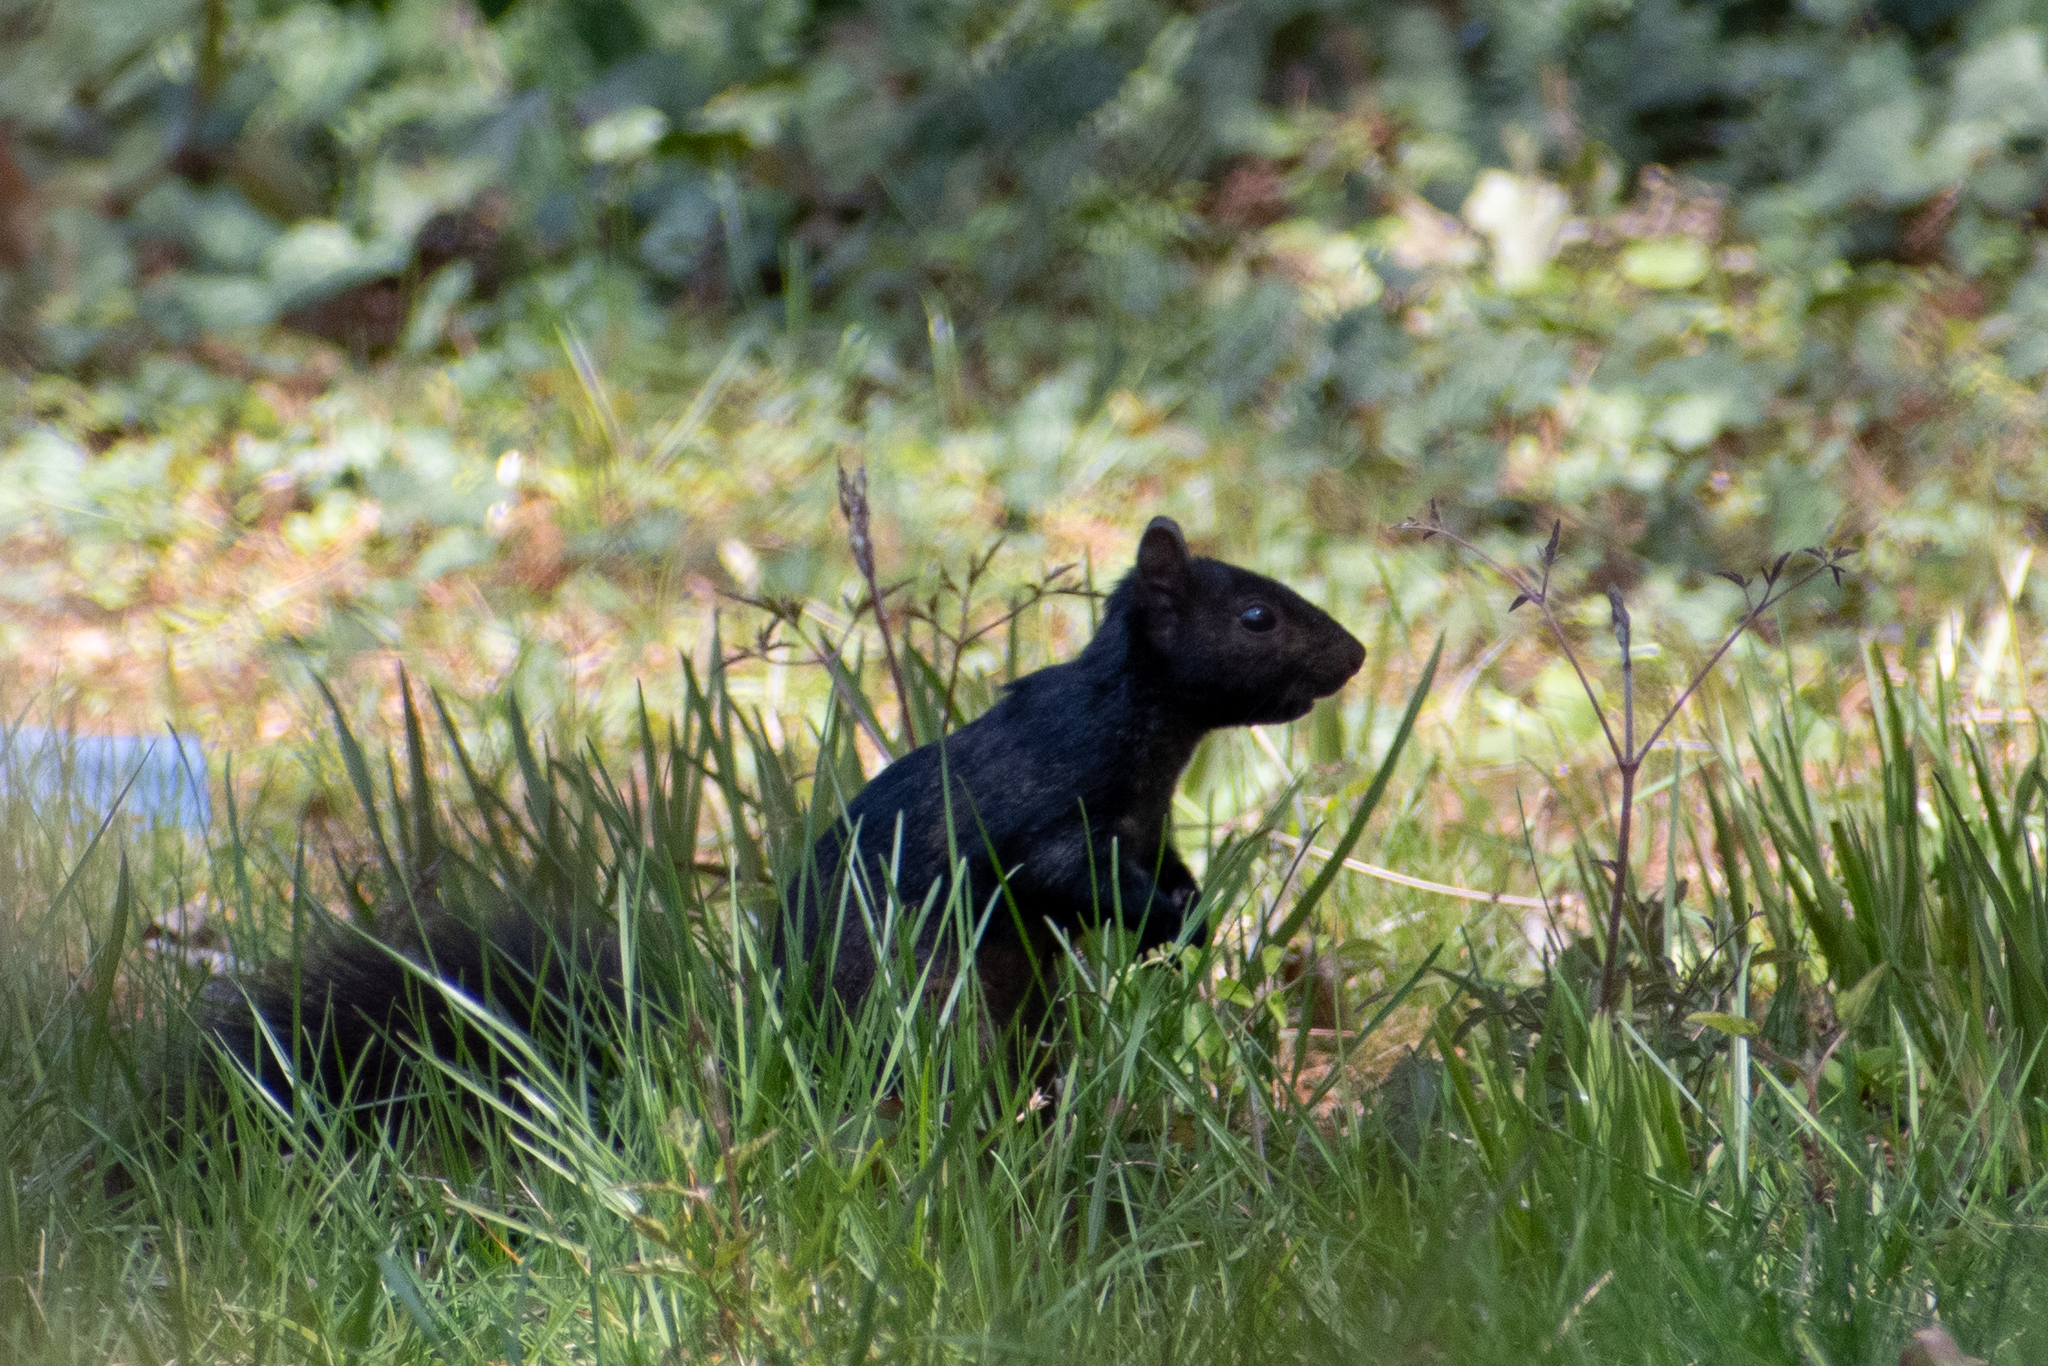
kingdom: Animalia
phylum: Chordata
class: Mammalia
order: Rodentia
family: Sciuridae
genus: Sciurus
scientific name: Sciurus carolinensis
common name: Eastern gray squirrel
